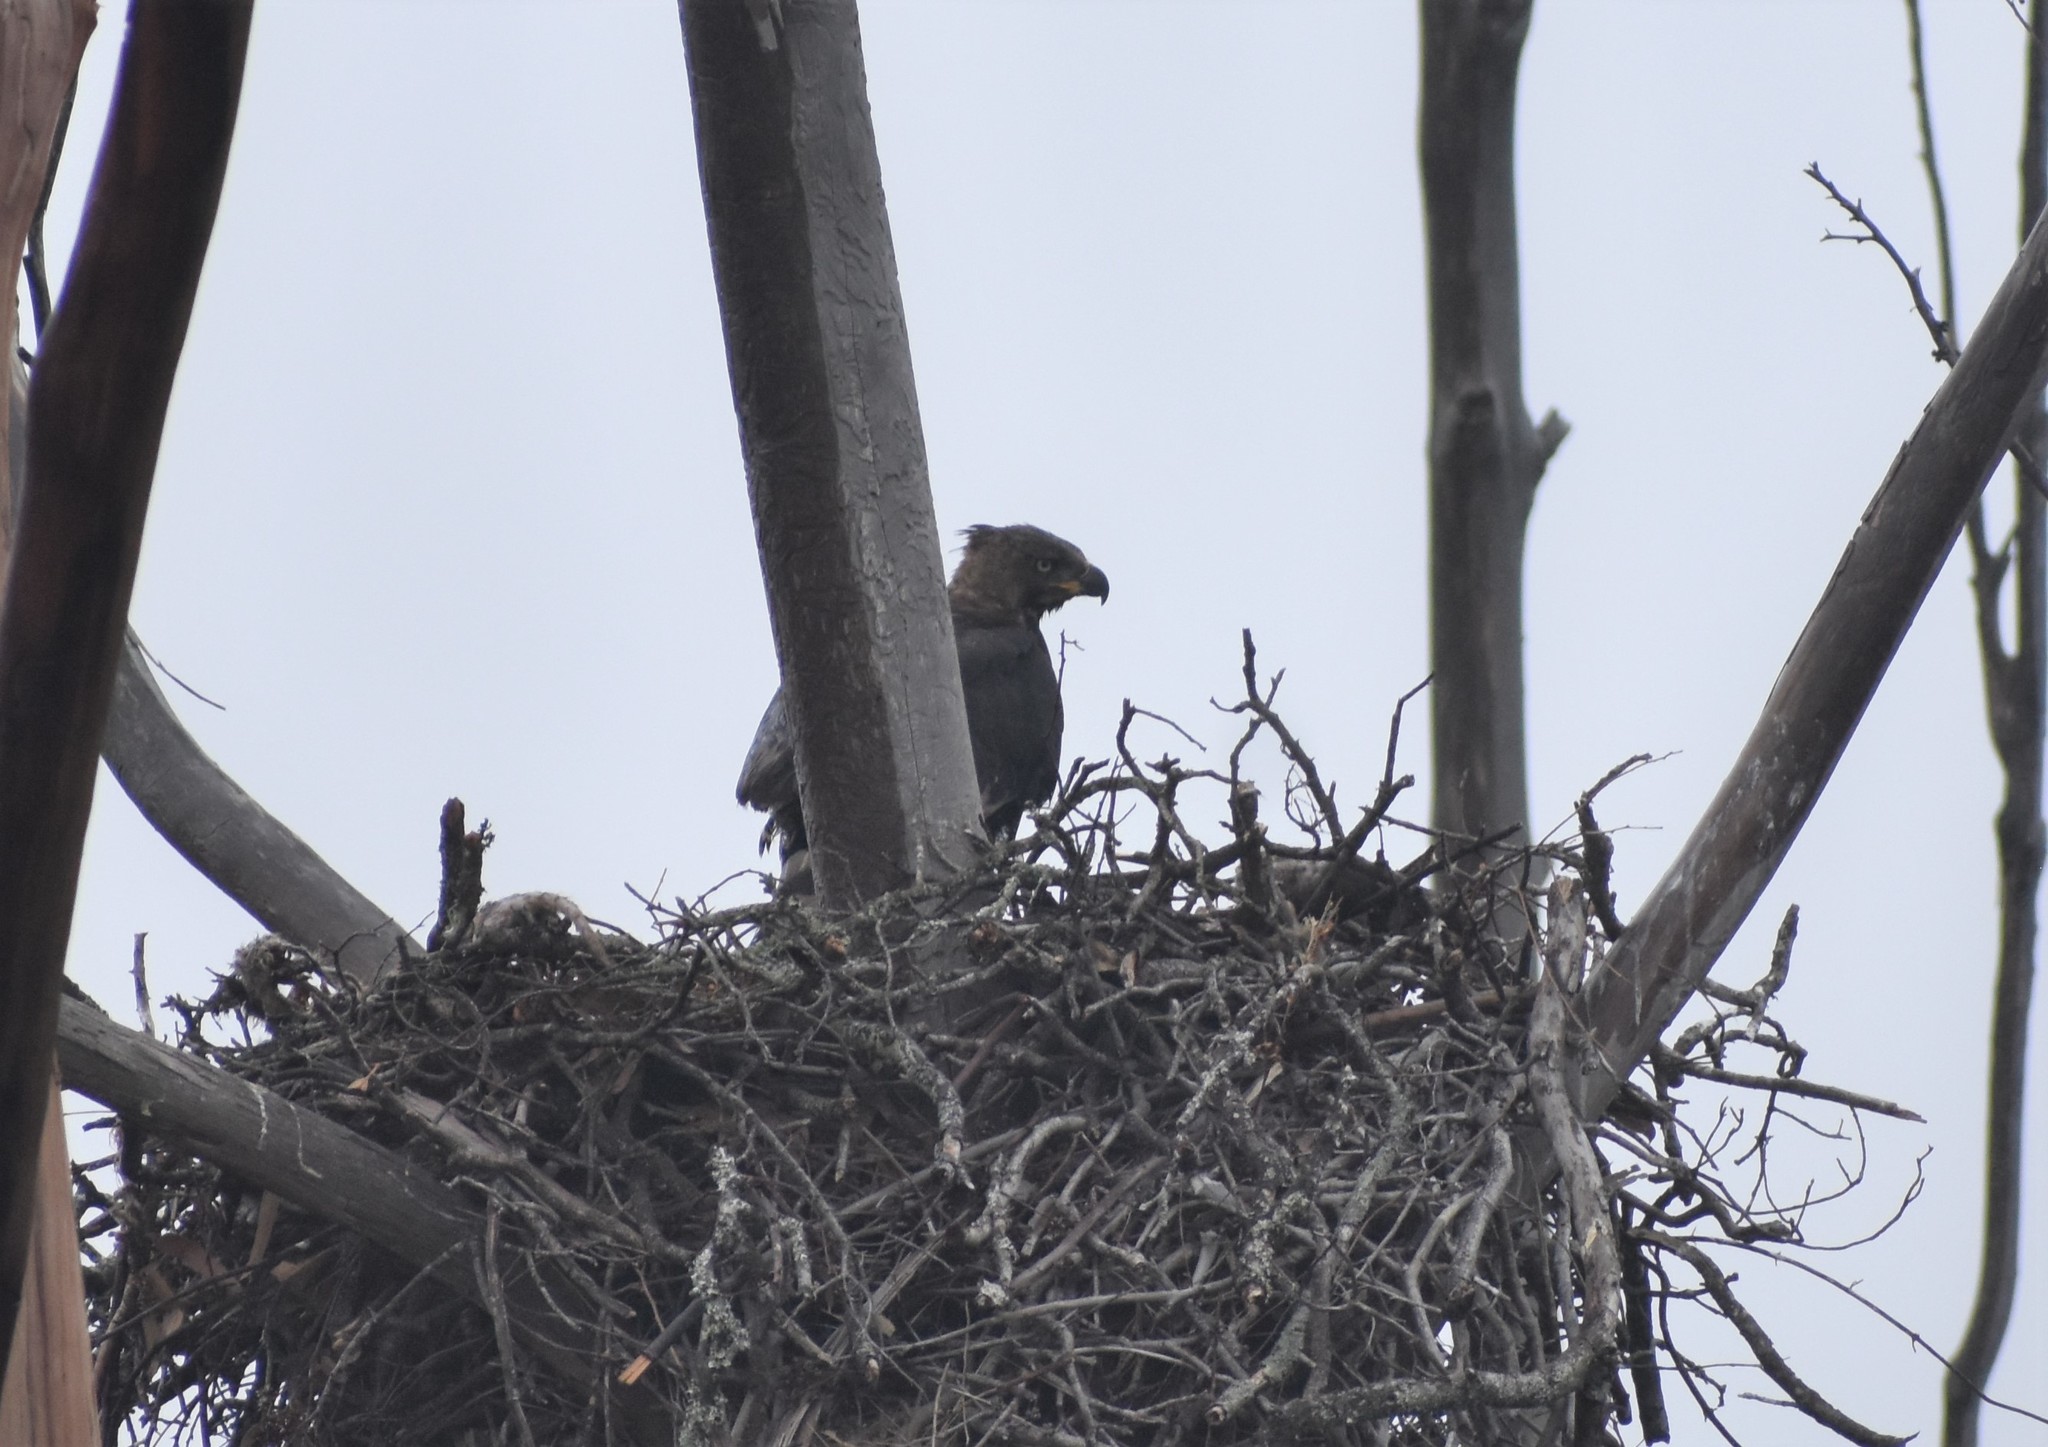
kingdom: Animalia
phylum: Chordata
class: Aves
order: Accipitriformes
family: Accipitridae
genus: Stephanoaetus
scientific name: Stephanoaetus coronatus
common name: Crowned eagle
